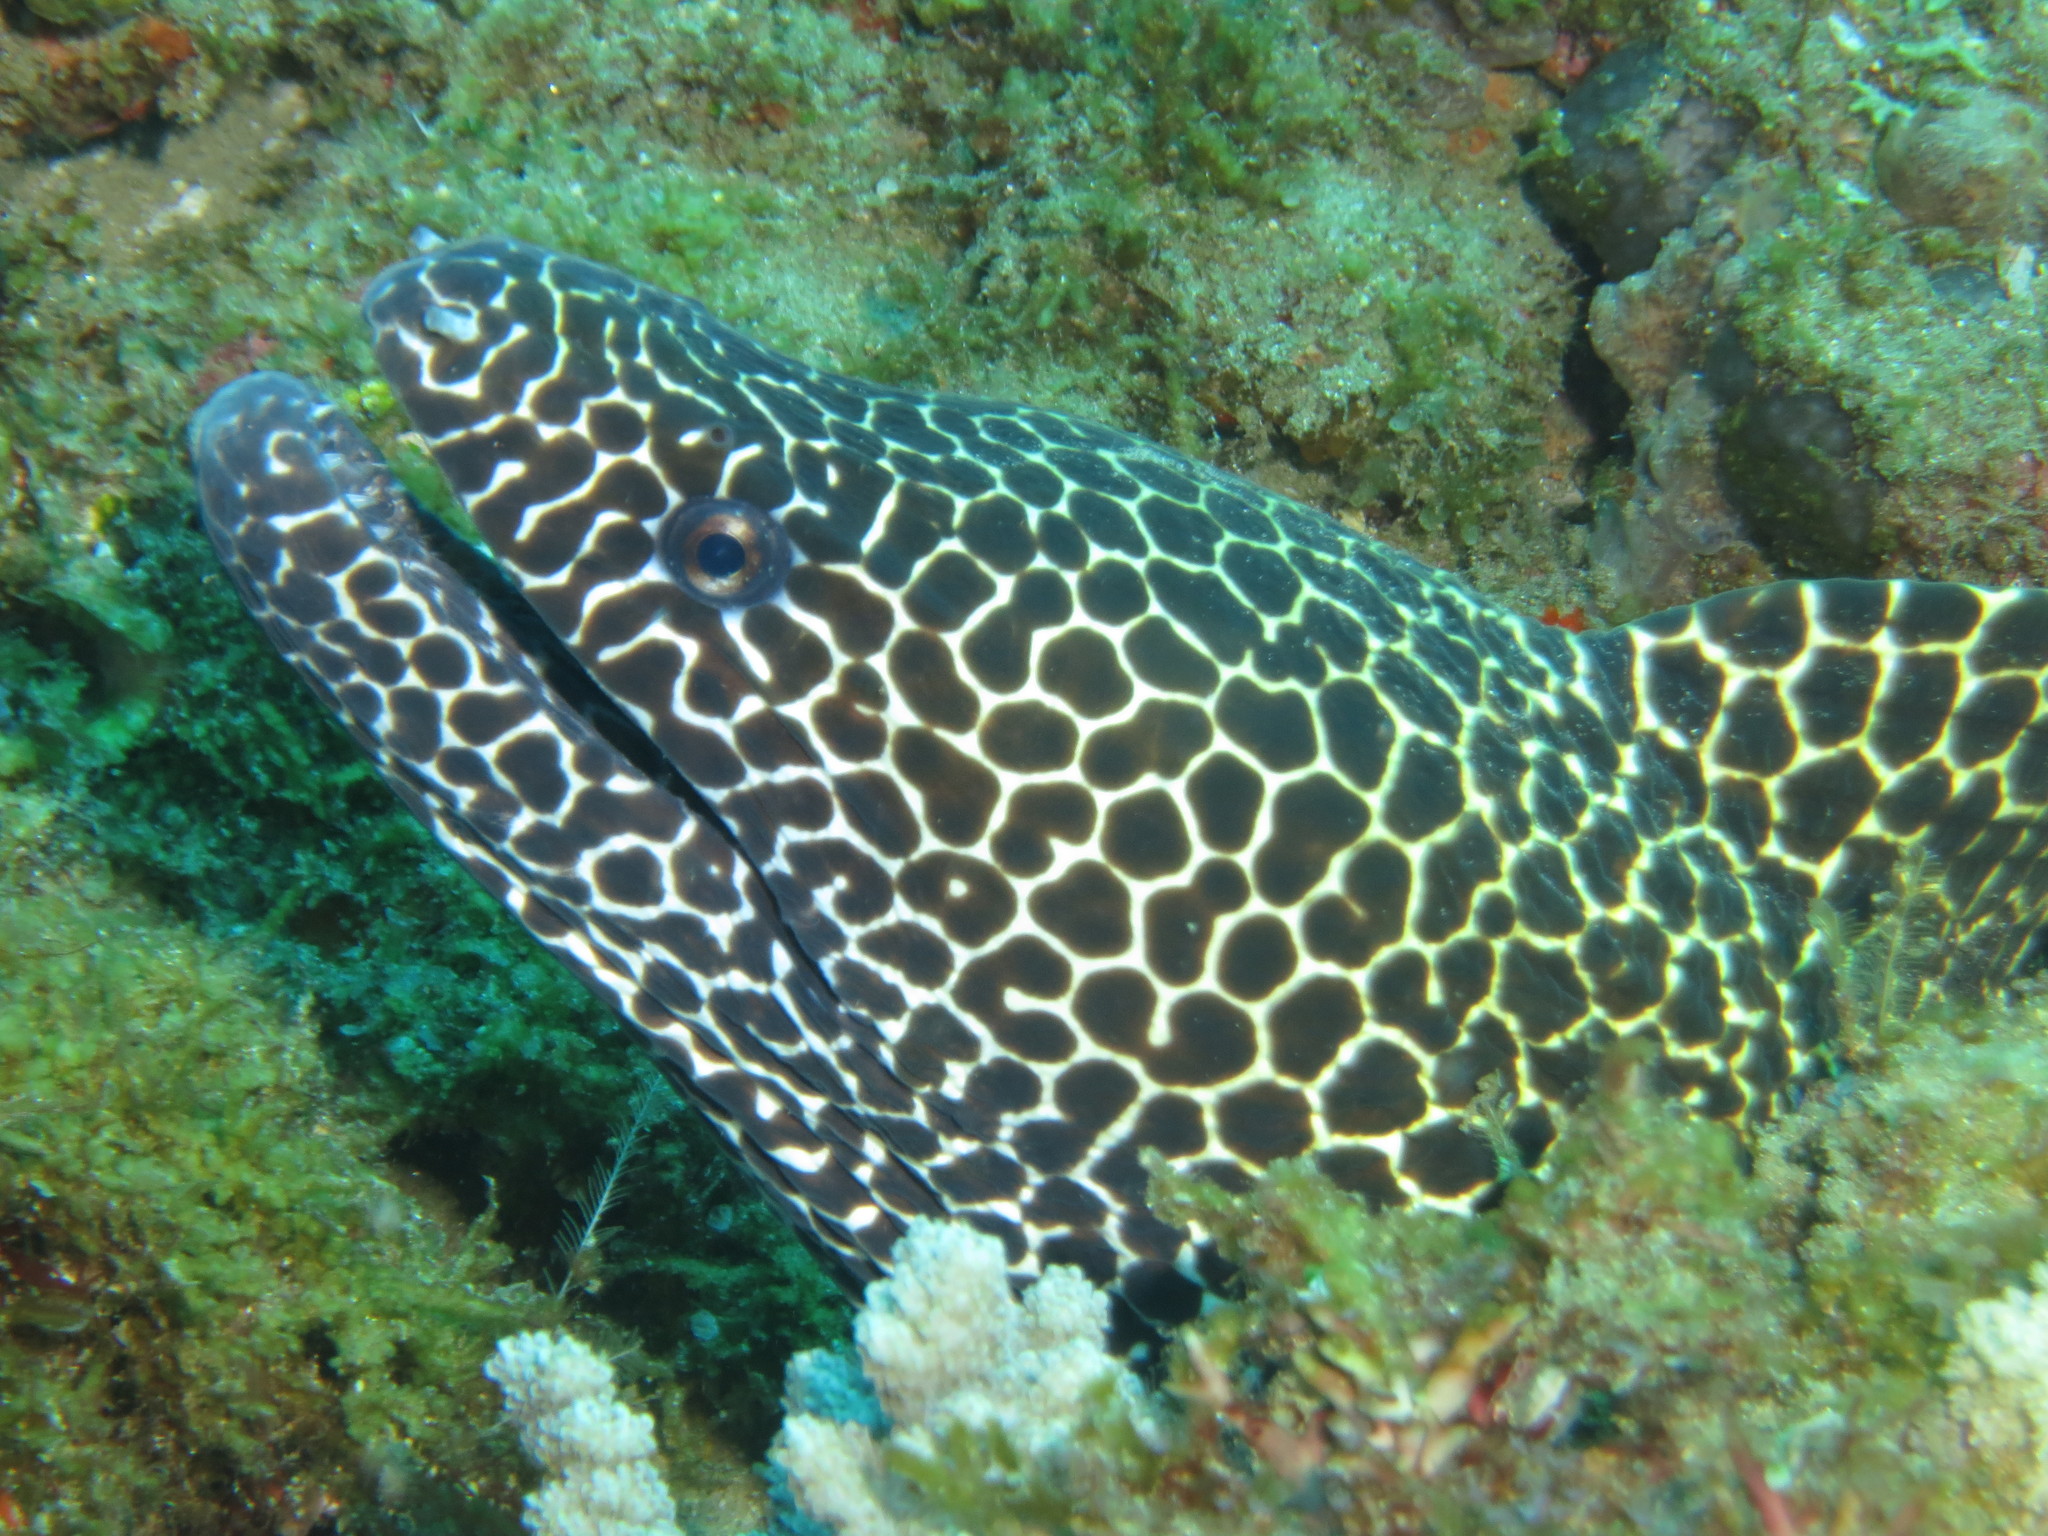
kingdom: Animalia
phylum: Chordata
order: Anguilliformes
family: Muraenidae
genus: Gymnothorax
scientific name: Gymnothorax favagineus
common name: Honeycomb moray
